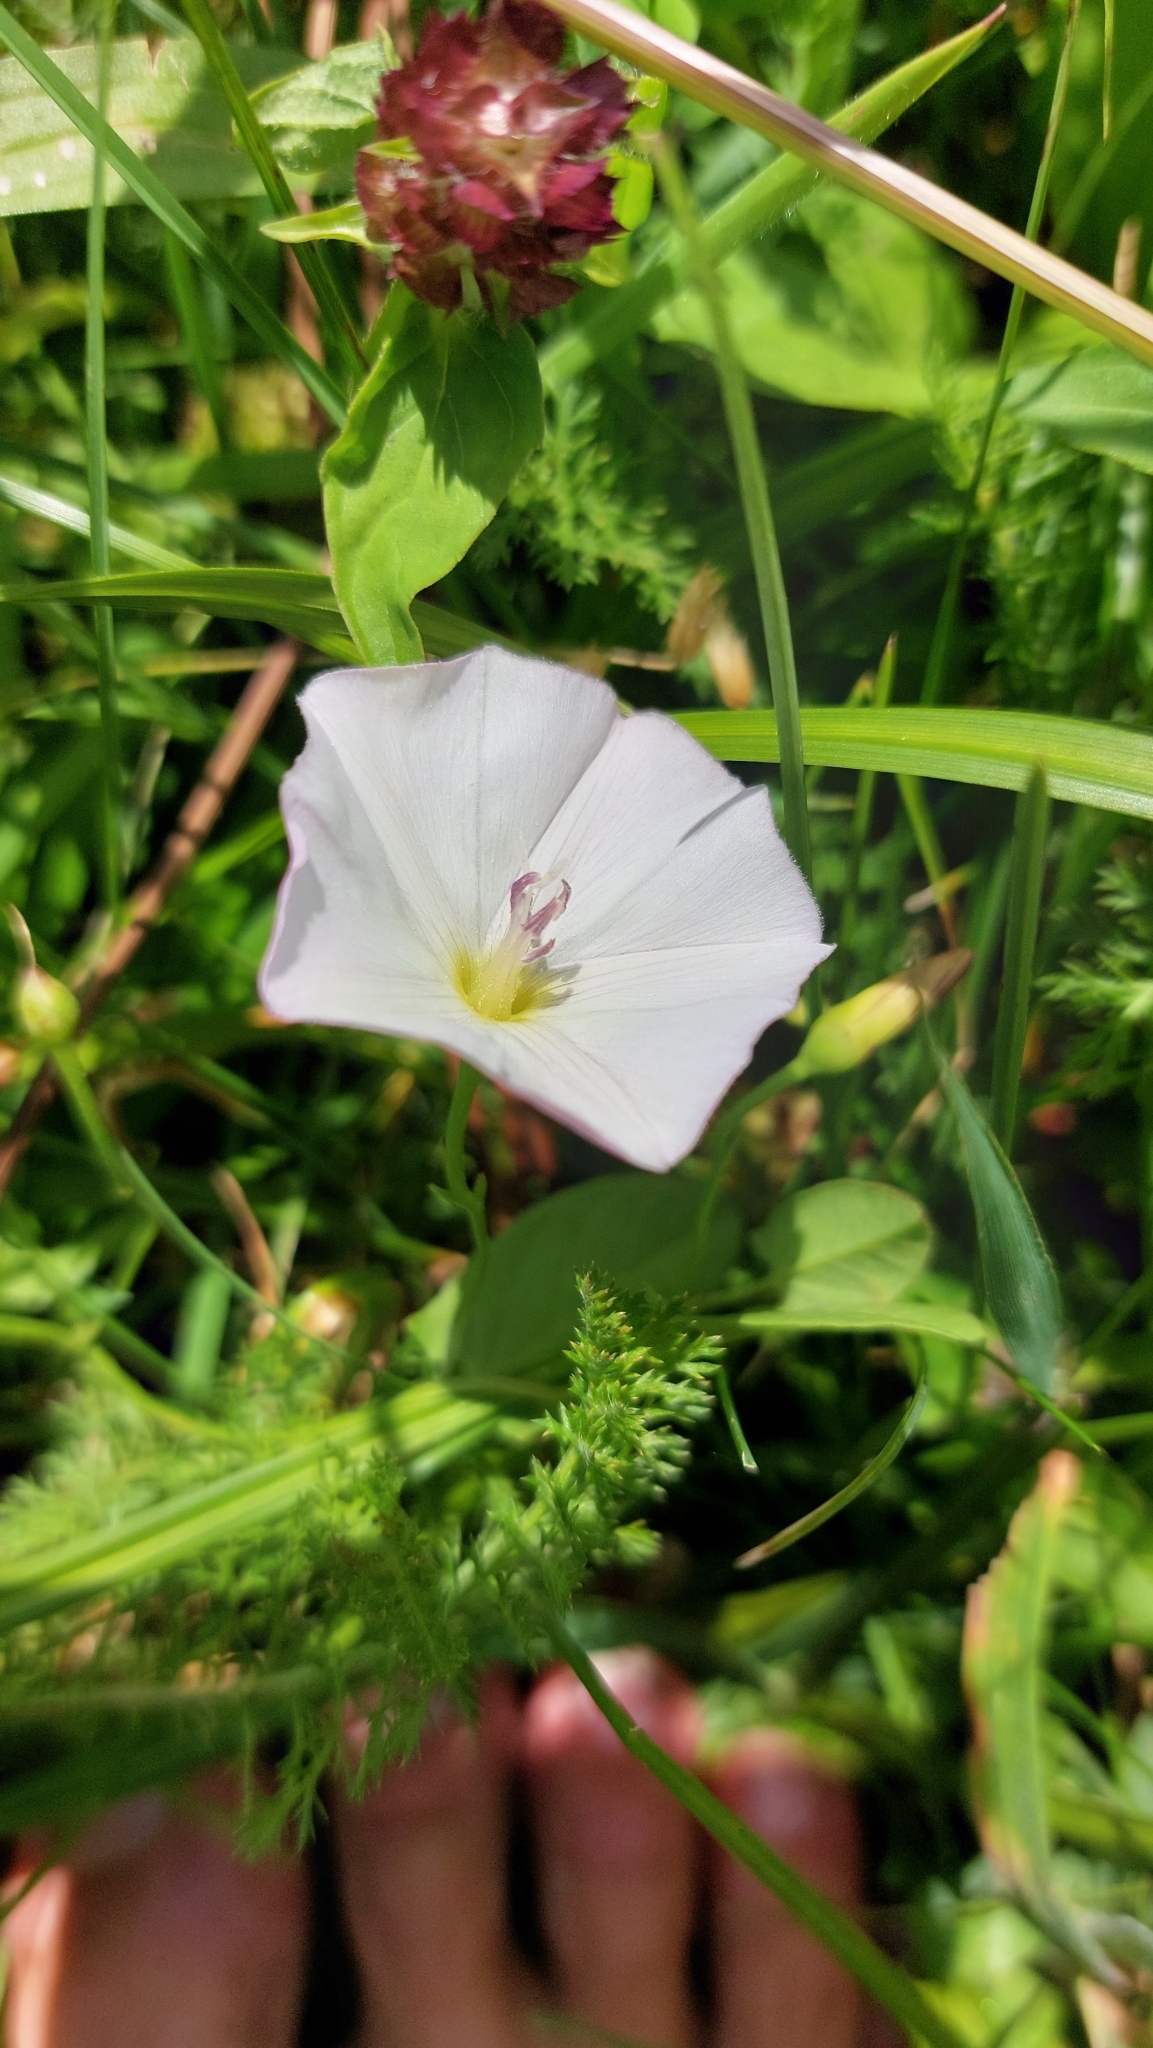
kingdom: Plantae
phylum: Tracheophyta
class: Magnoliopsida
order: Solanales
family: Convolvulaceae
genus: Convolvulus
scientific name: Convolvulus arvensis
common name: Field bindweed
